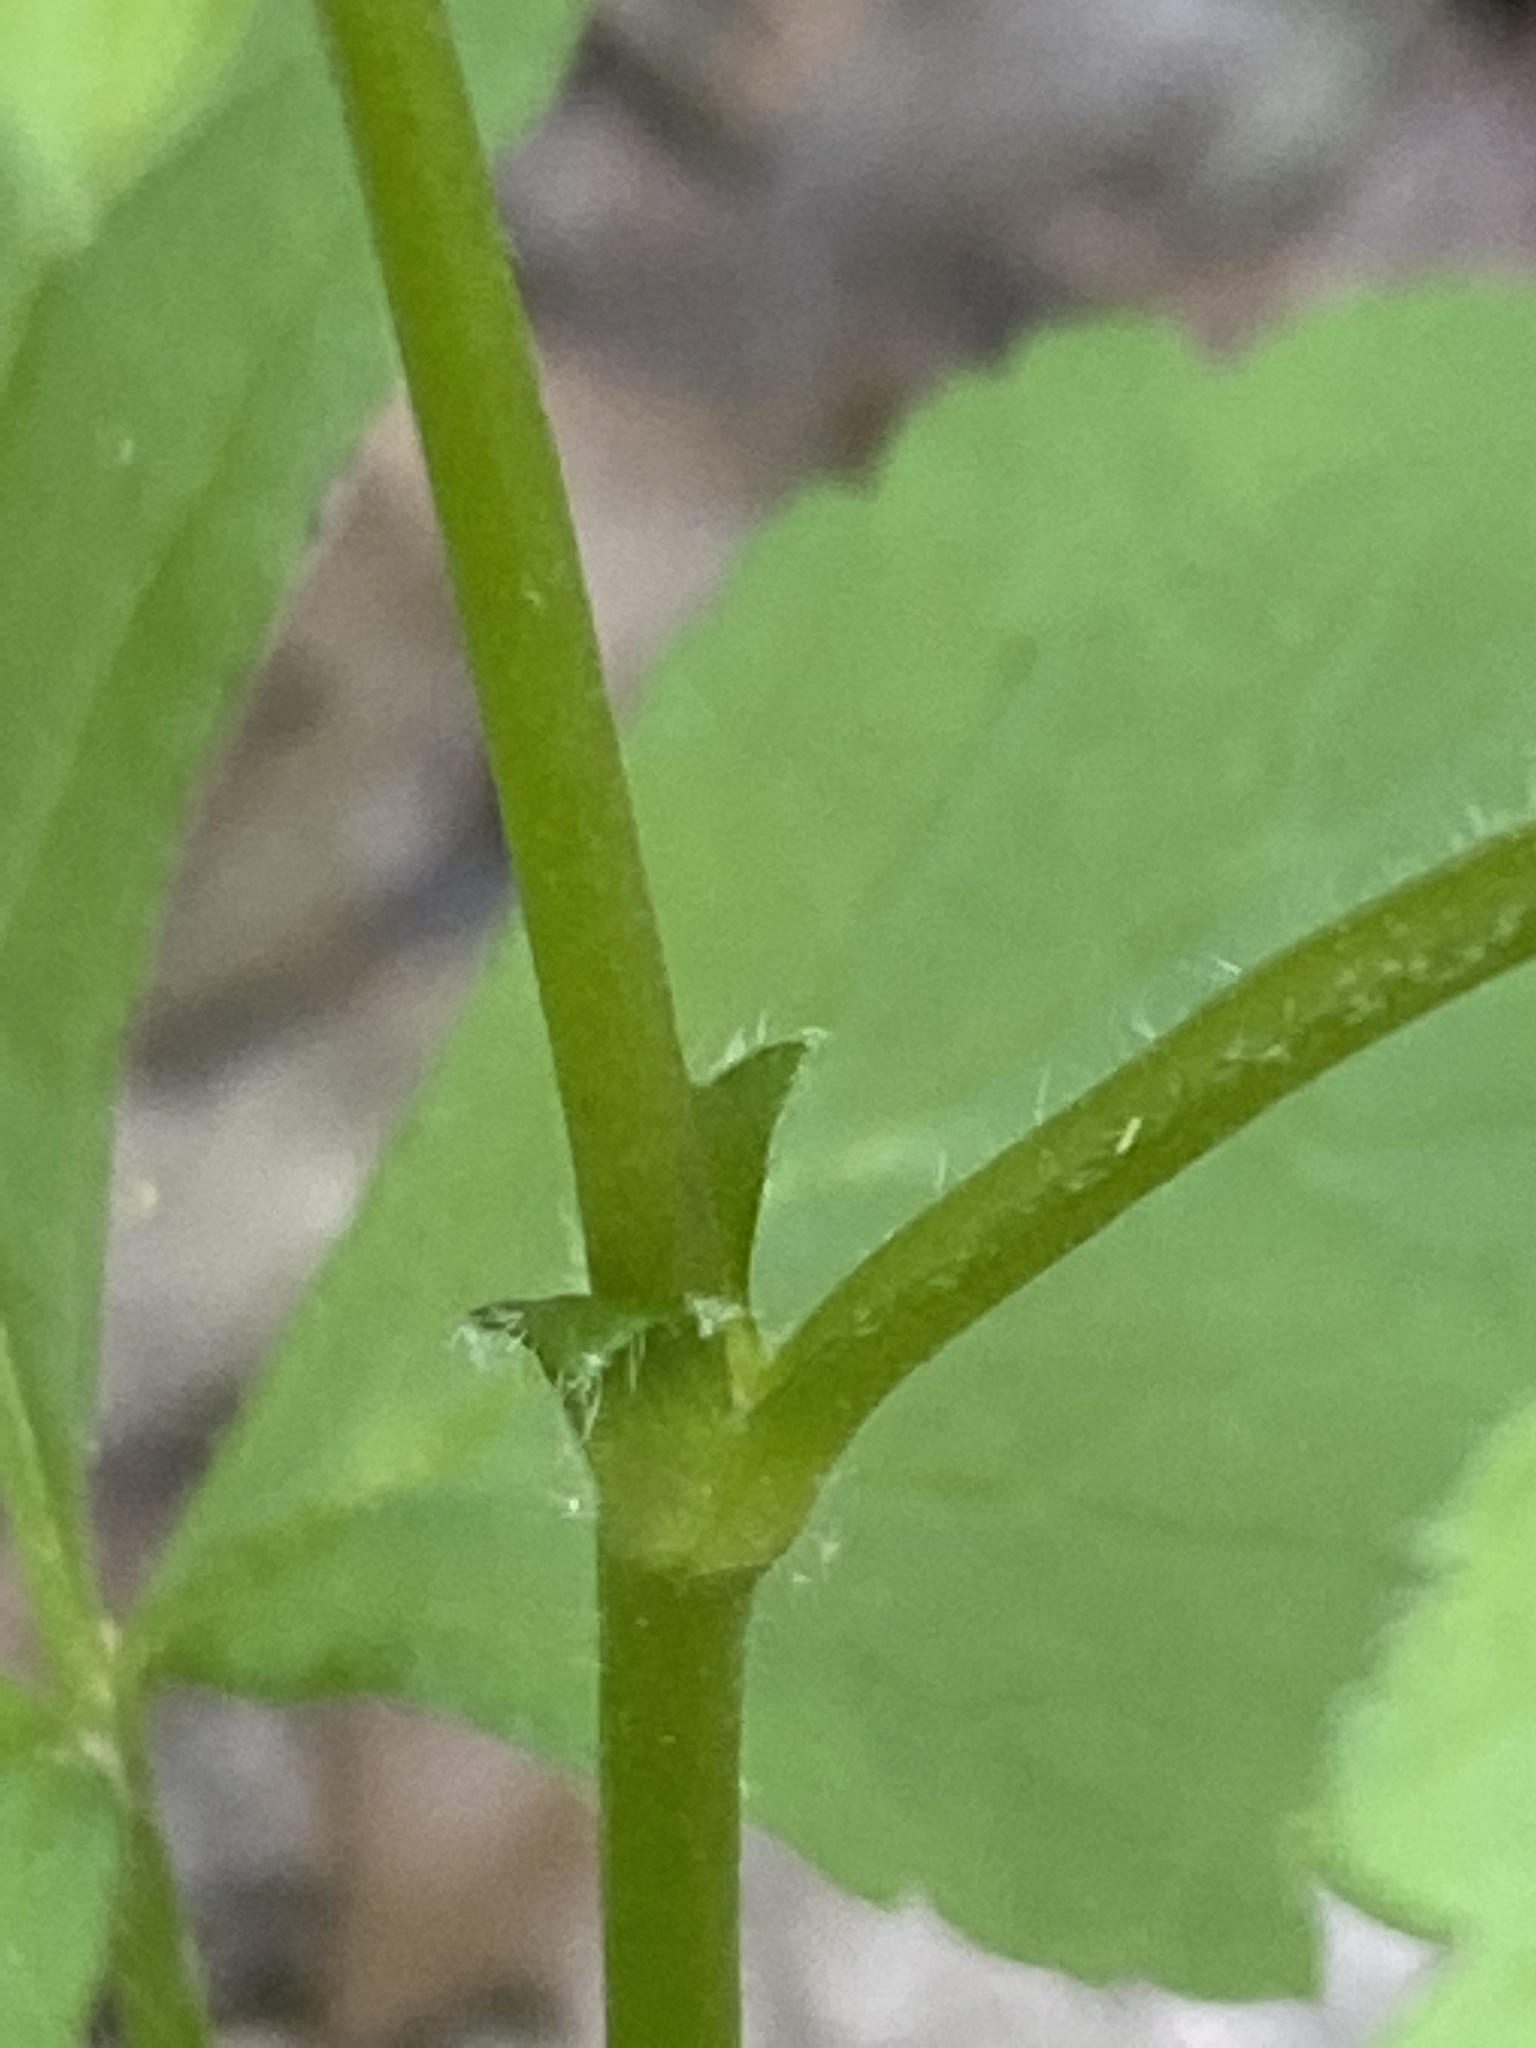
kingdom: Plantae
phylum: Tracheophyta
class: Magnoliopsida
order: Rosales
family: Rosaceae
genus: Geum
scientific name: Geum canadense
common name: White avens
